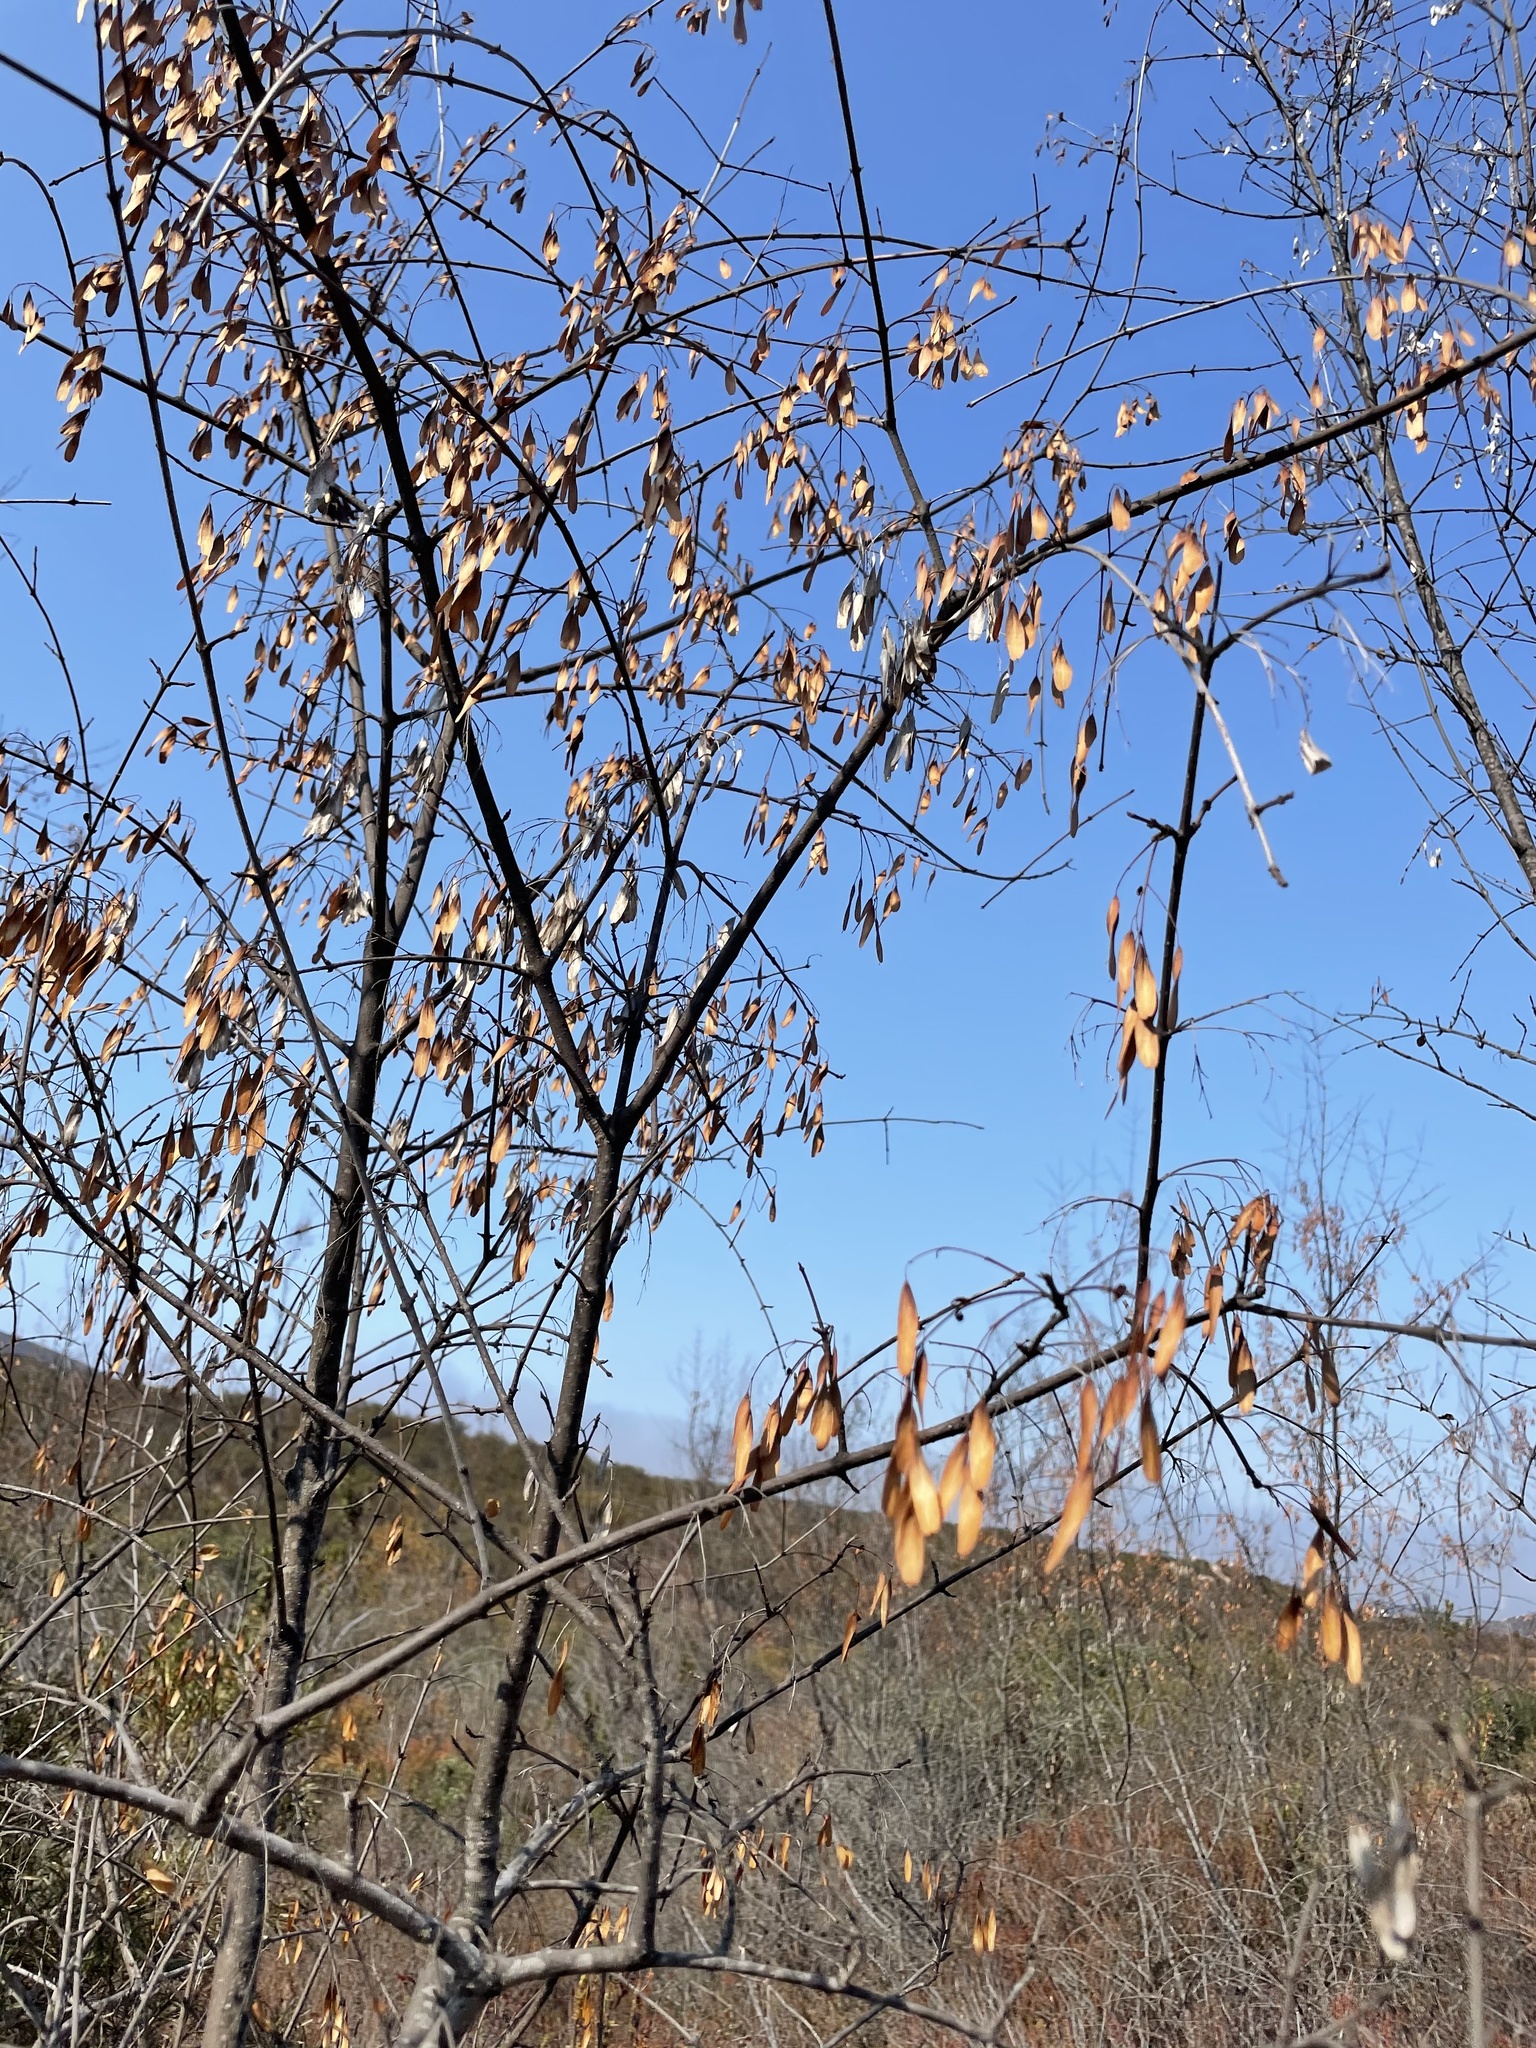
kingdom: Plantae
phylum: Tracheophyta
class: Magnoliopsida
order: Lamiales
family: Oleaceae
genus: Fraxinus
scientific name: Fraxinus dipetala
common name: California ash
